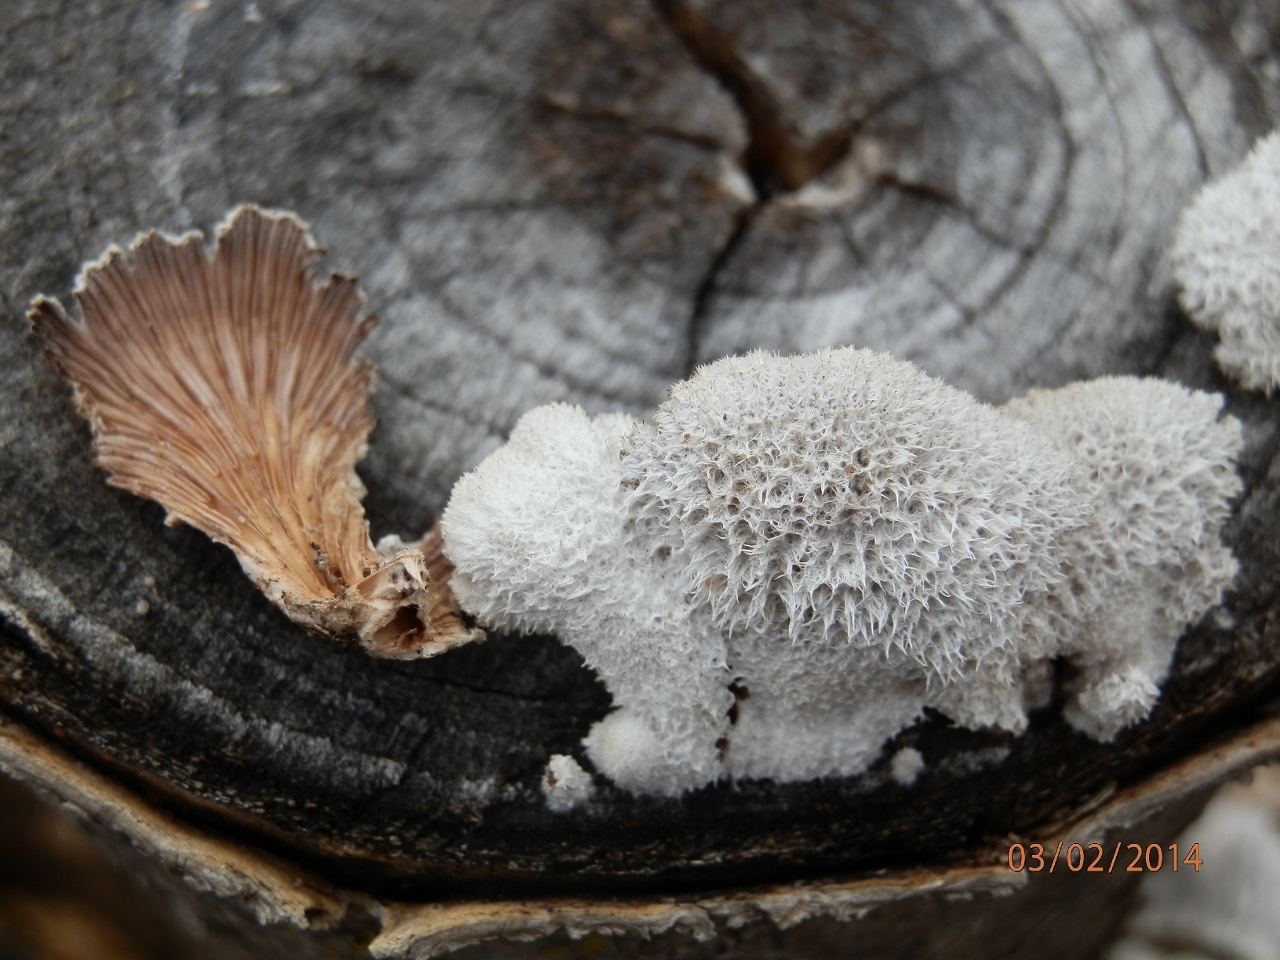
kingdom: Fungi
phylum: Basidiomycota
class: Agaricomycetes
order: Agaricales
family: Schizophyllaceae
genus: Schizophyllum
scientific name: Schizophyllum commune
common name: Common porecrust
